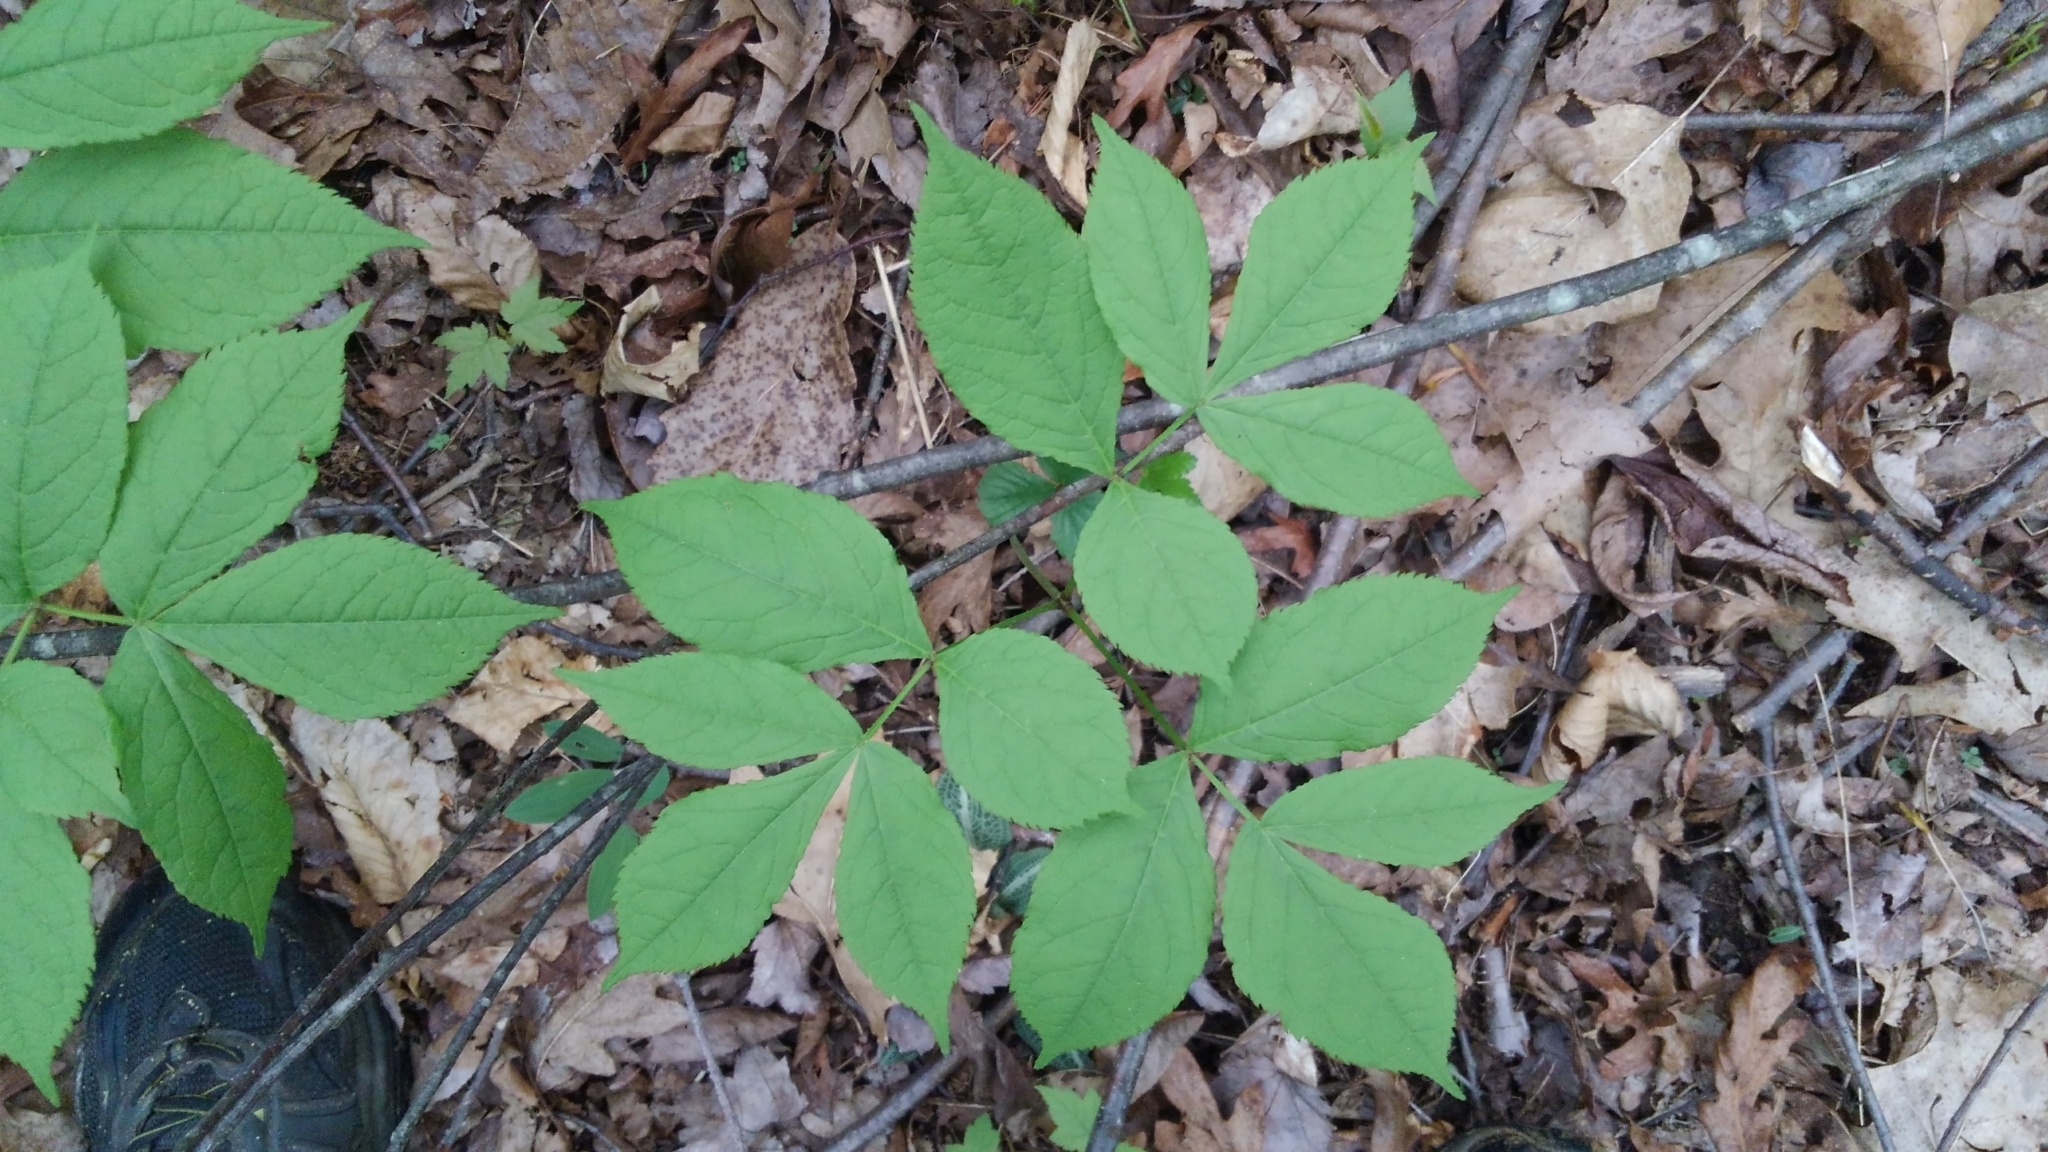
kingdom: Plantae
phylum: Tracheophyta
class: Magnoliopsida
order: Apiales
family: Araliaceae
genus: Aralia
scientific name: Aralia nudicaulis
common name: Wild sarsaparilla
